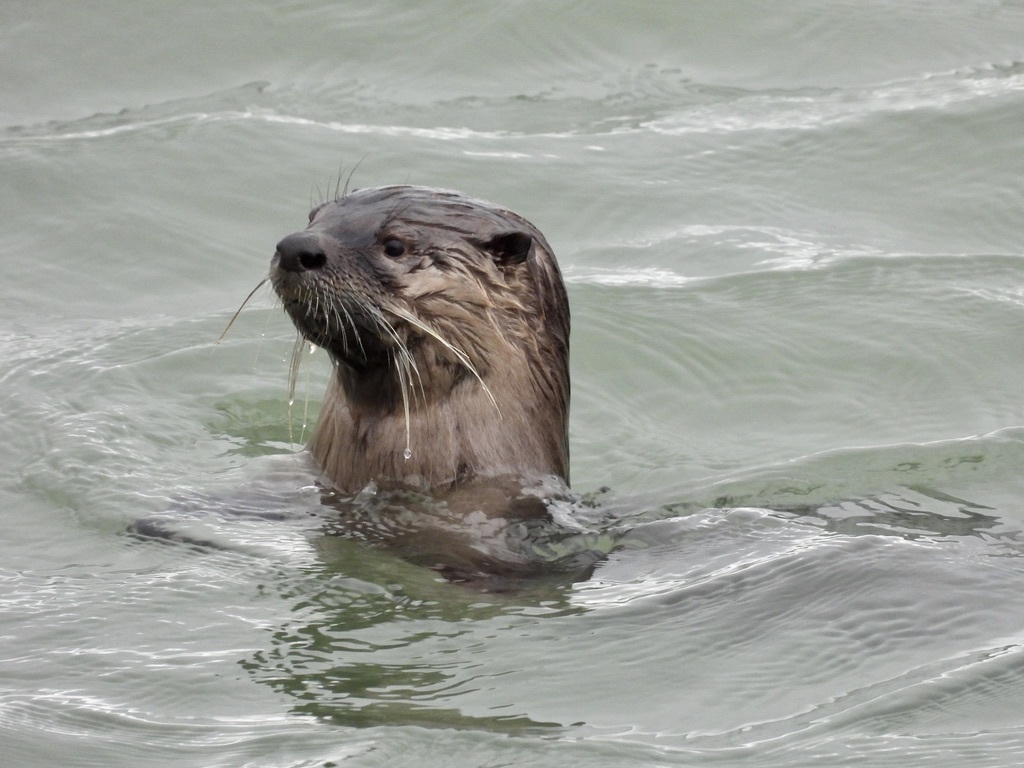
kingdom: Animalia
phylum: Chordata
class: Mammalia
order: Carnivora
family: Mustelidae
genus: Lontra
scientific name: Lontra canadensis
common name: North american river otter
